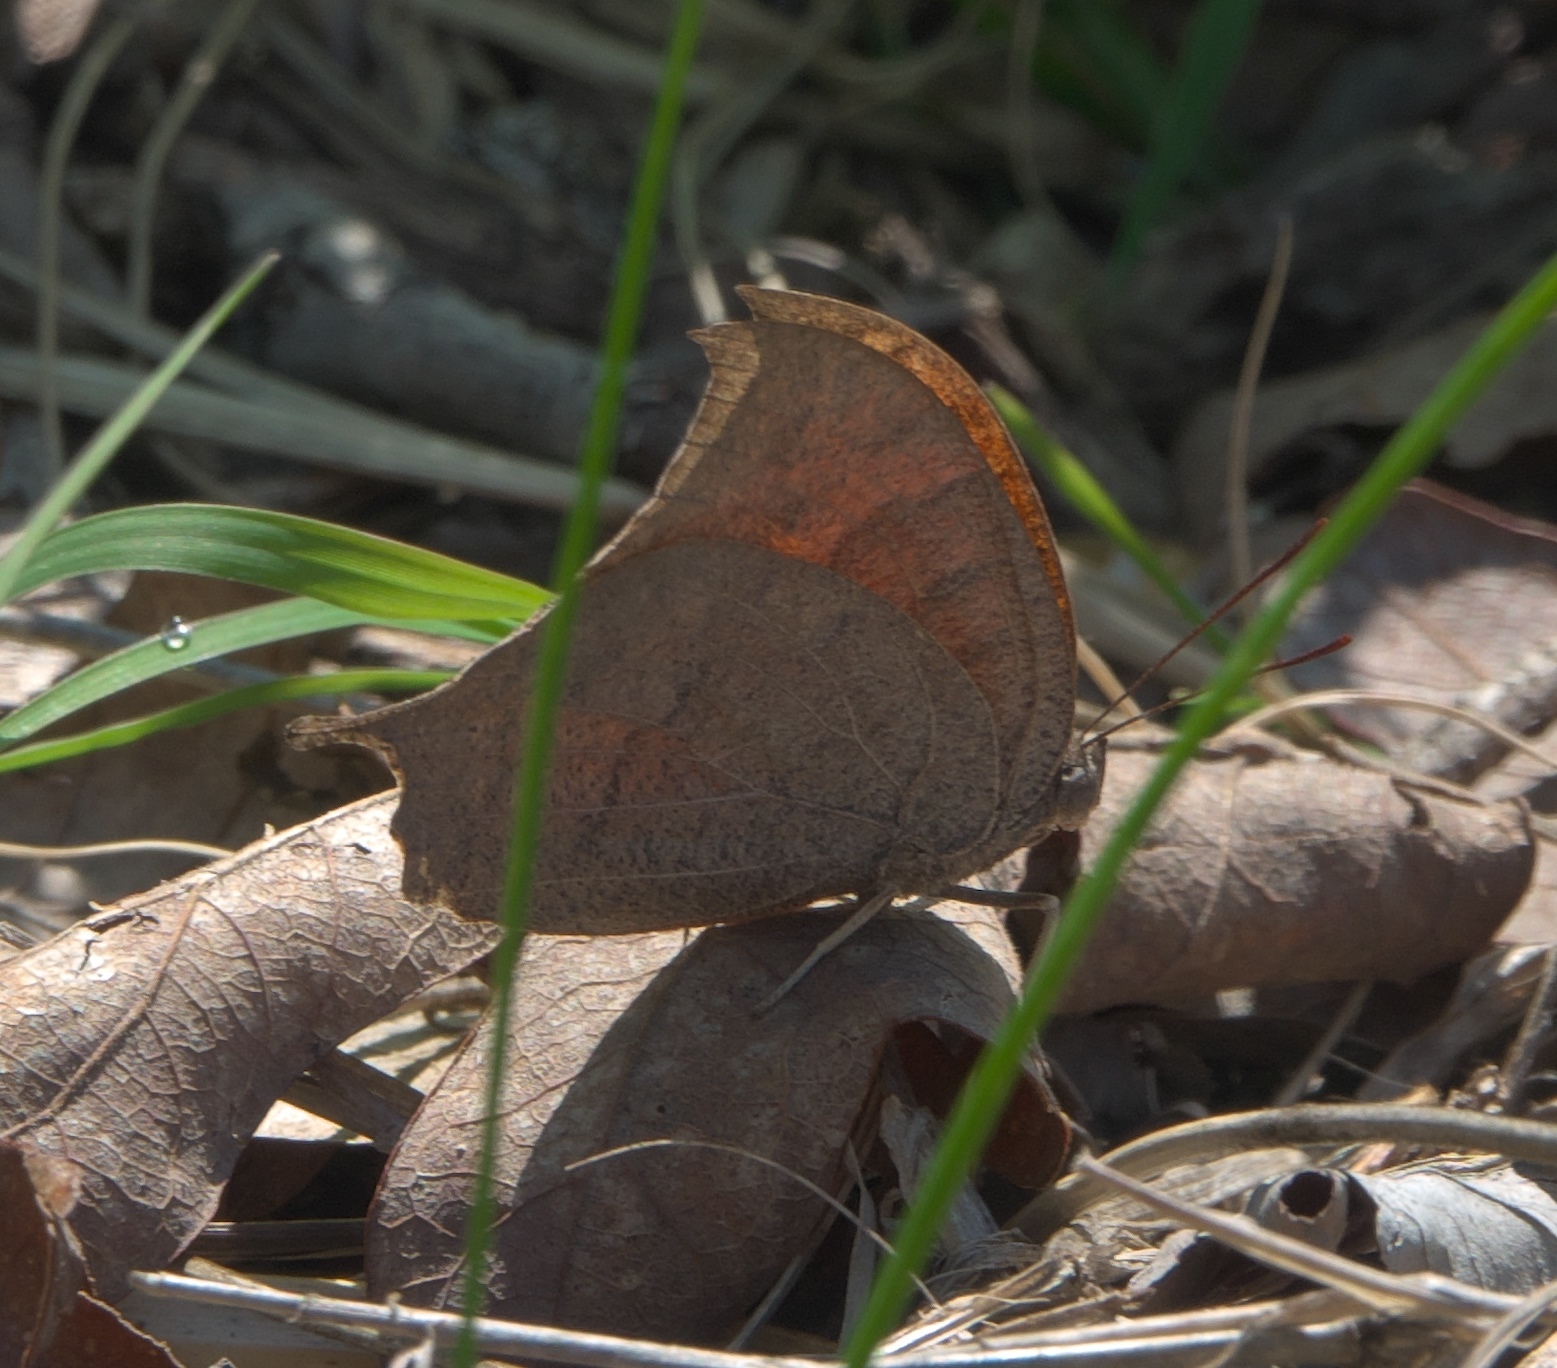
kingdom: Animalia
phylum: Arthropoda
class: Insecta
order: Lepidoptera
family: Nymphalidae
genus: Anaea
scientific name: Anaea andria
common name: Goatweed leafwing
